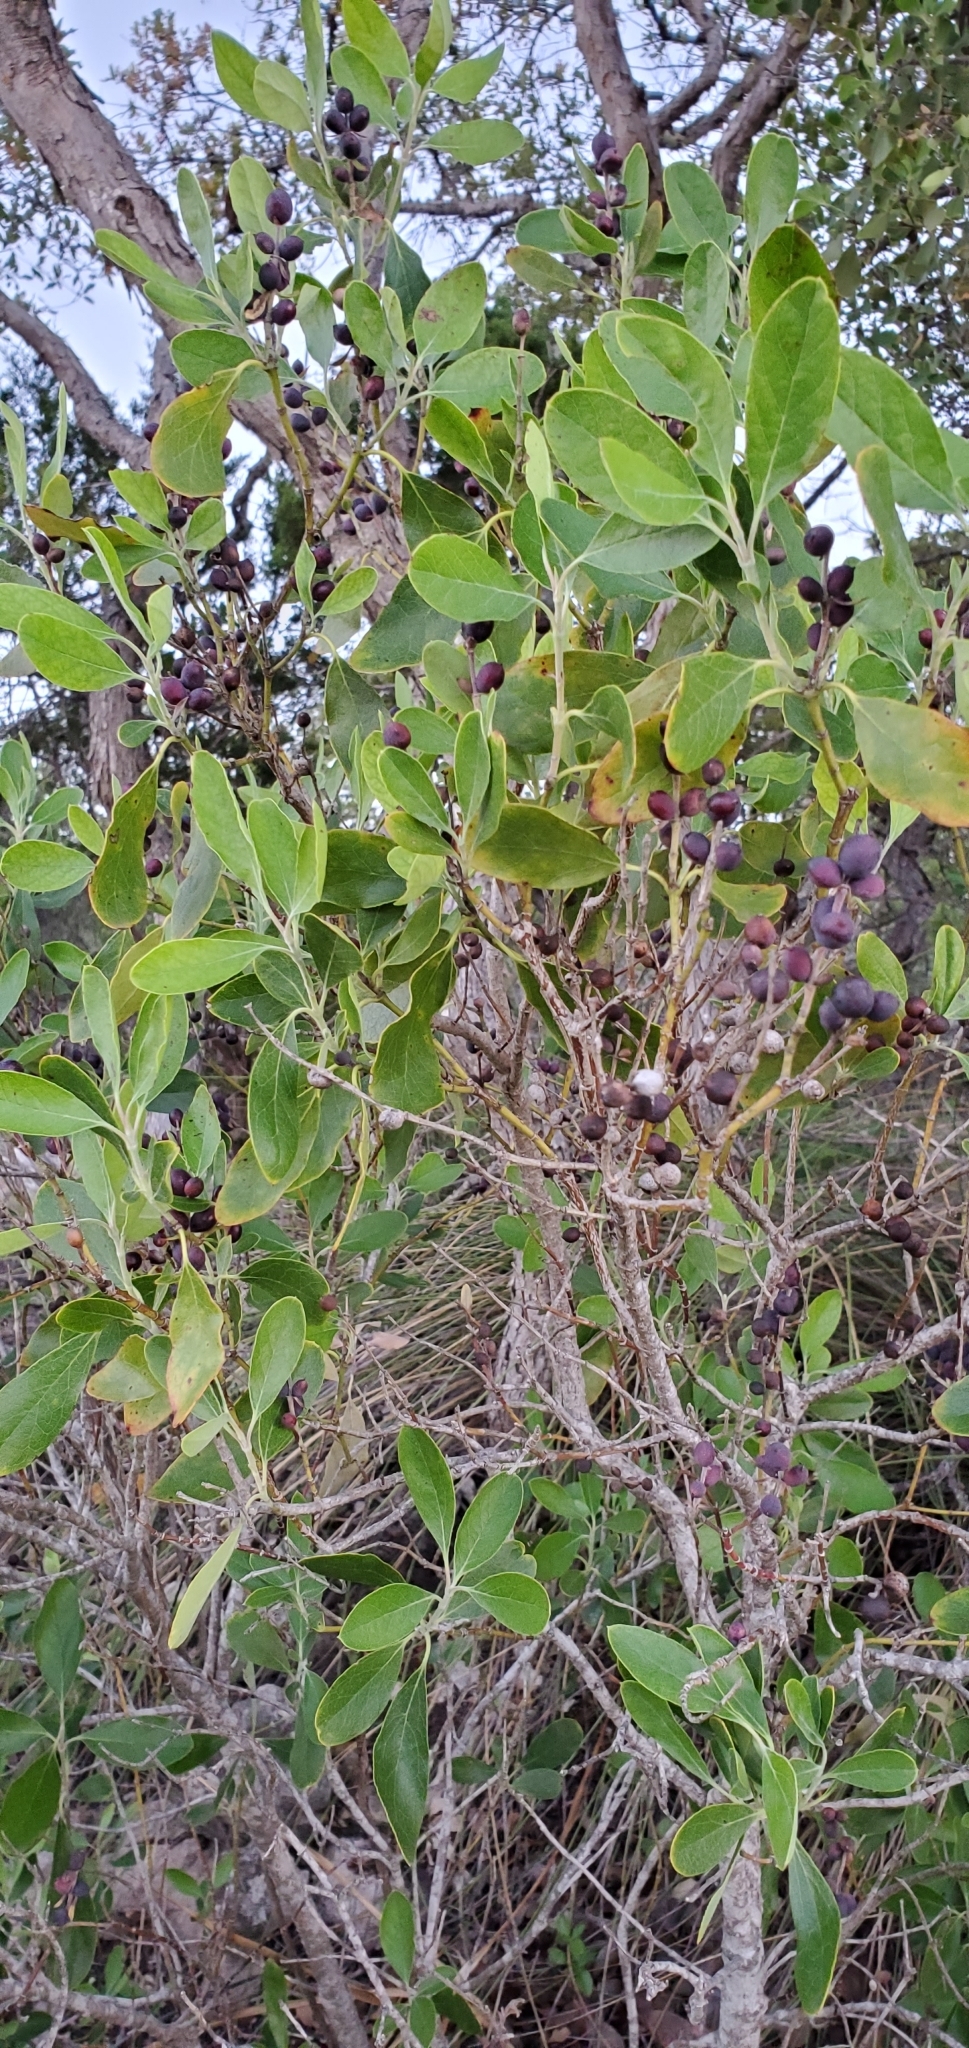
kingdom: Plantae
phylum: Tracheophyta
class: Magnoliopsida
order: Garryales
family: Garryaceae
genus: Garrya
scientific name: Garrya lindheimeri
